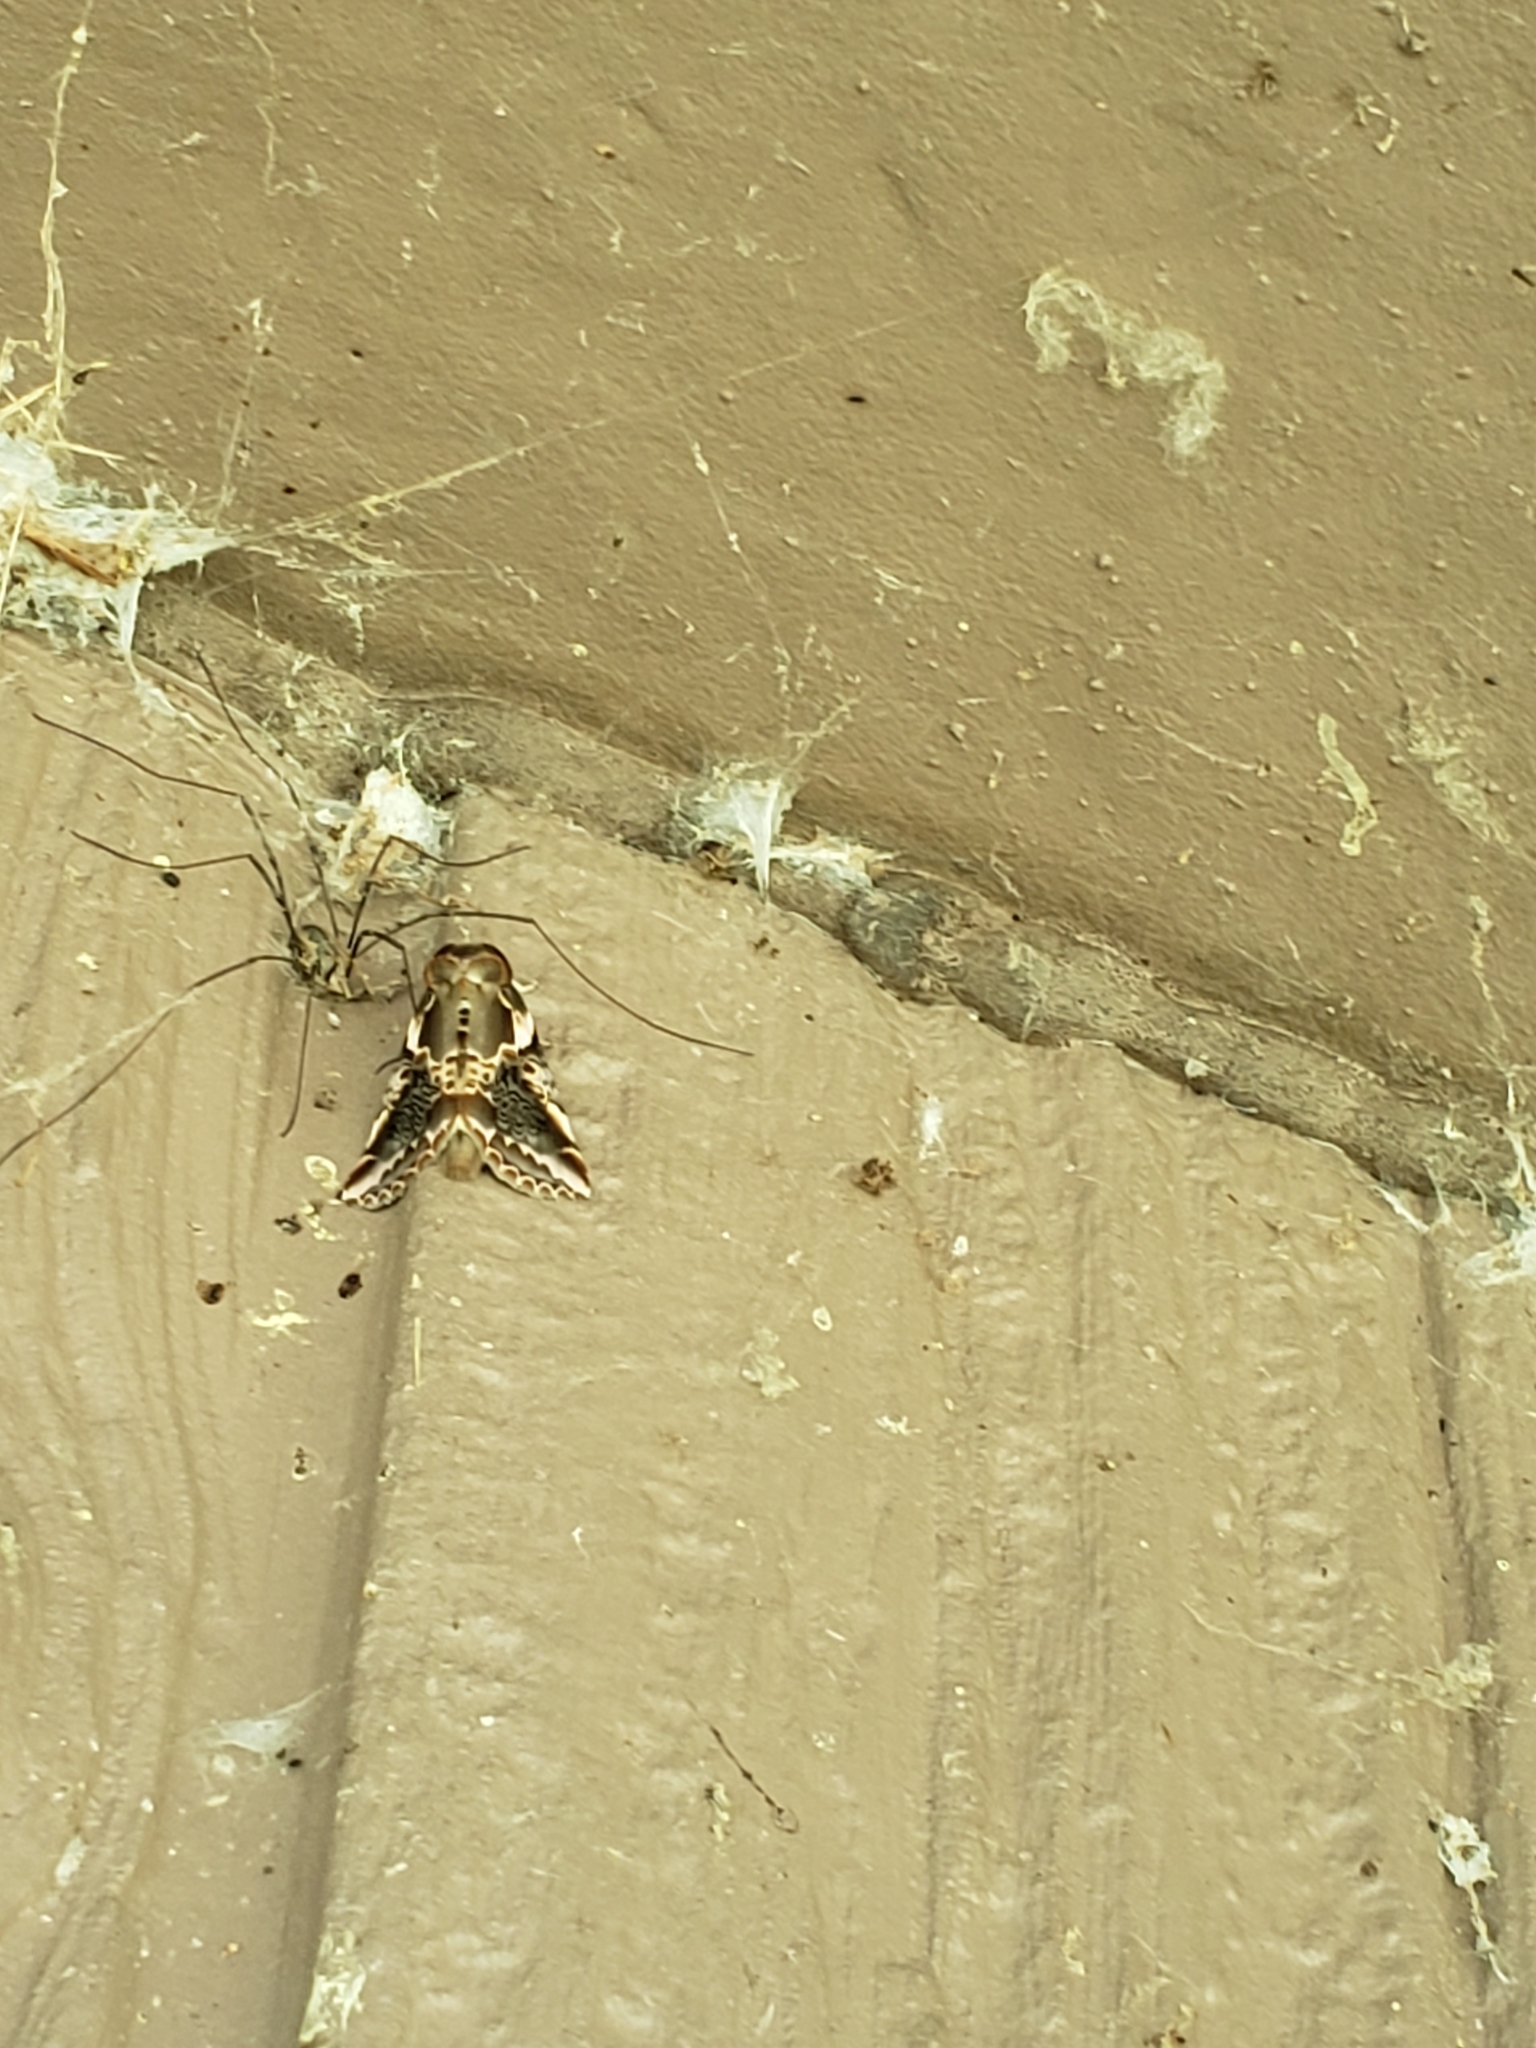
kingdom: Animalia
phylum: Arthropoda
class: Insecta
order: Lepidoptera
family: Drepanidae
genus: Habrosyne
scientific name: Habrosyne gloriosa
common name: Glorious habrosyne moth
